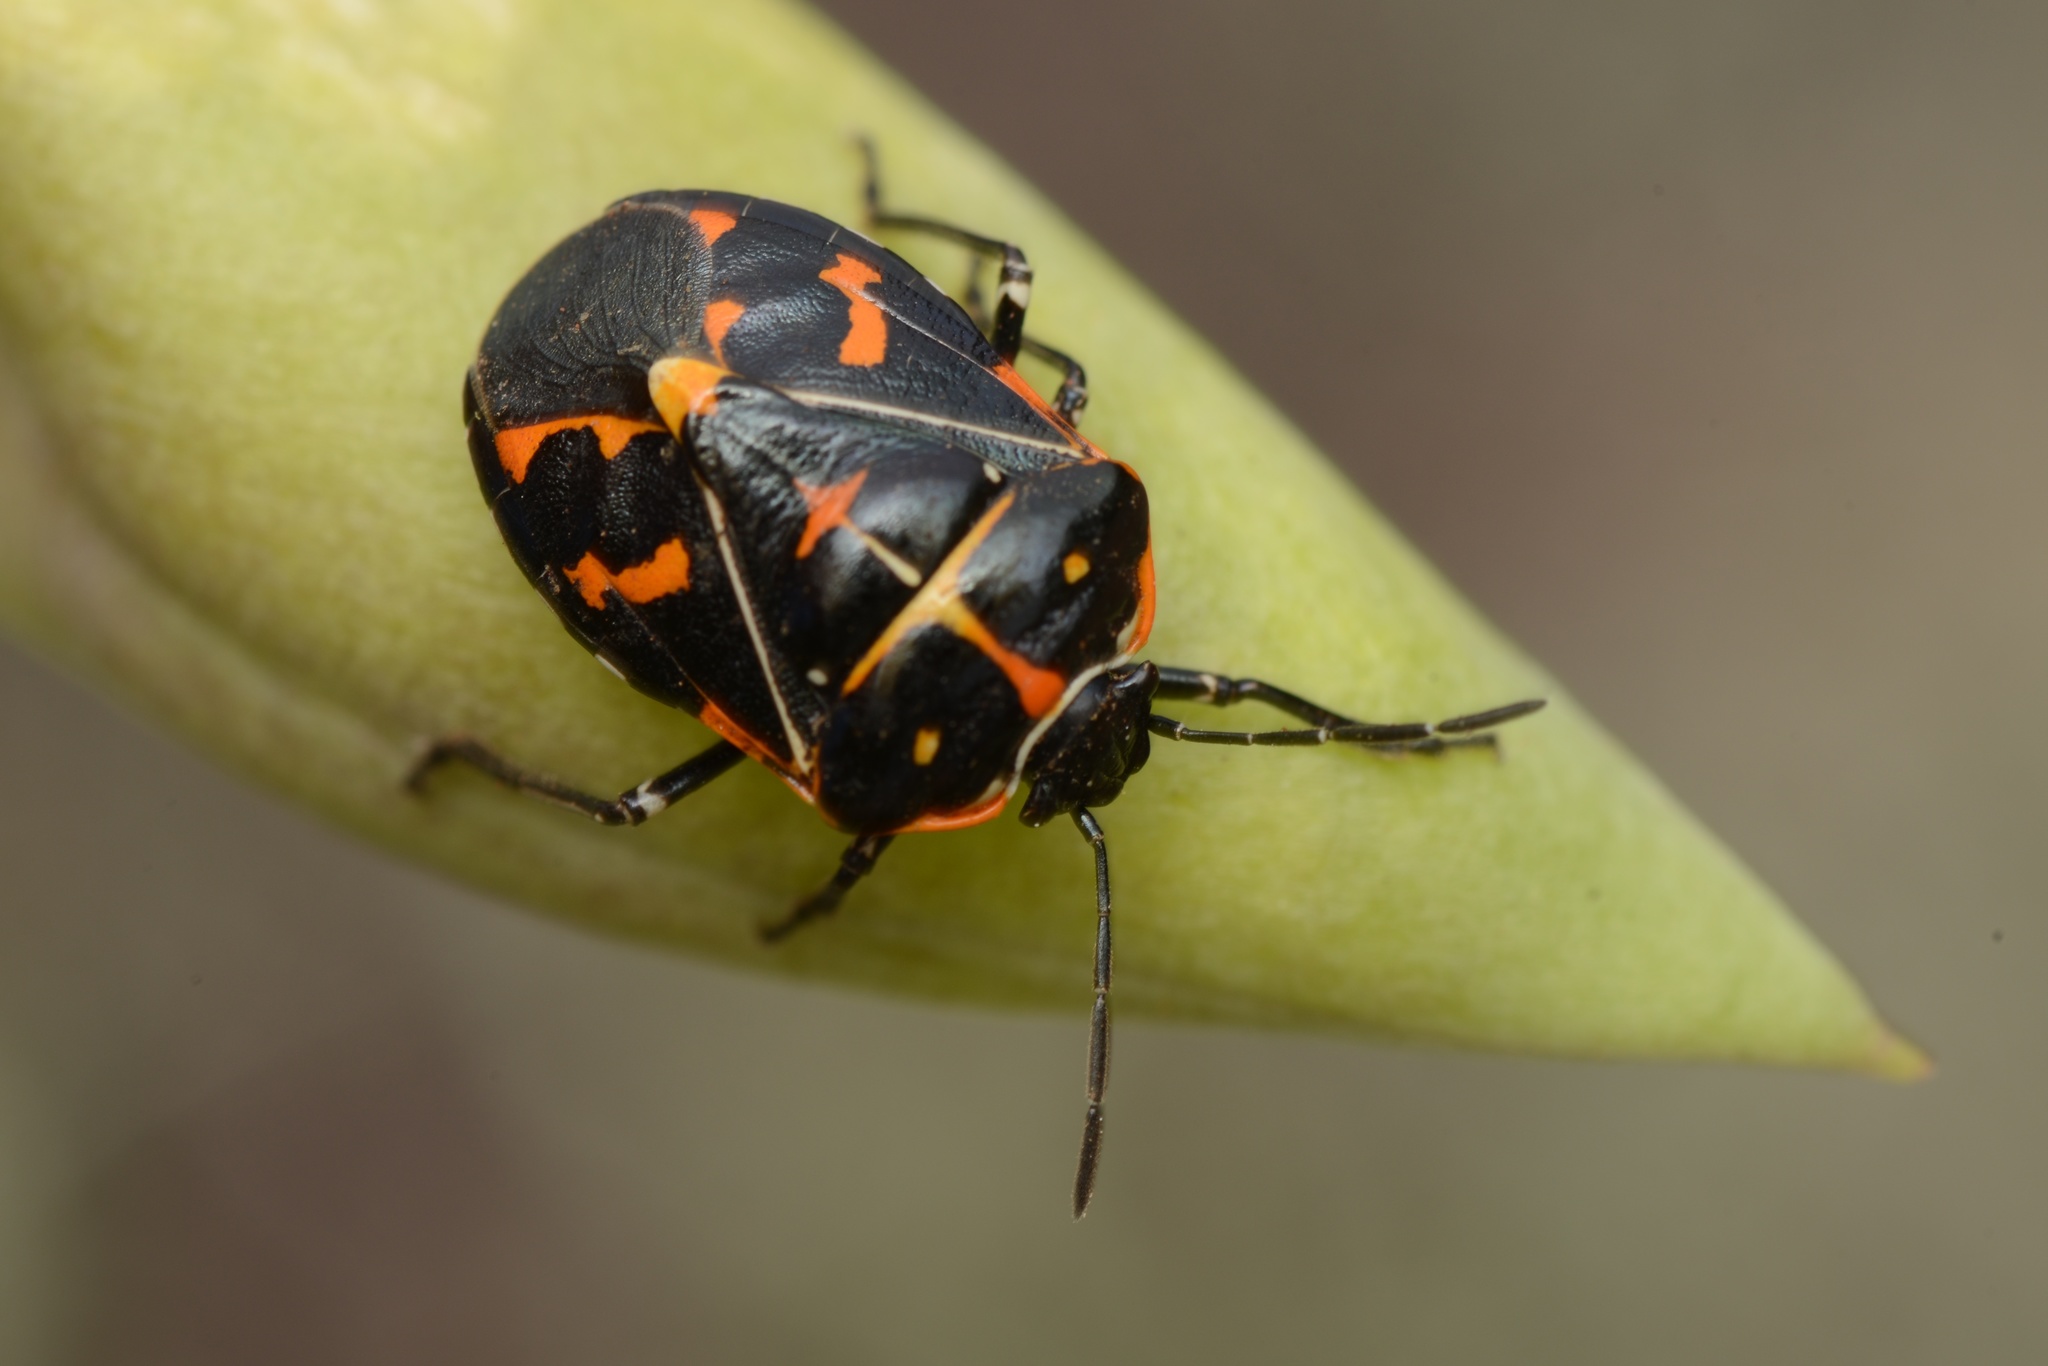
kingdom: Animalia
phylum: Arthropoda
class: Insecta
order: Hemiptera
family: Pentatomidae
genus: Murgantia
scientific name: Murgantia histrionica
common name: Harlequin bug
